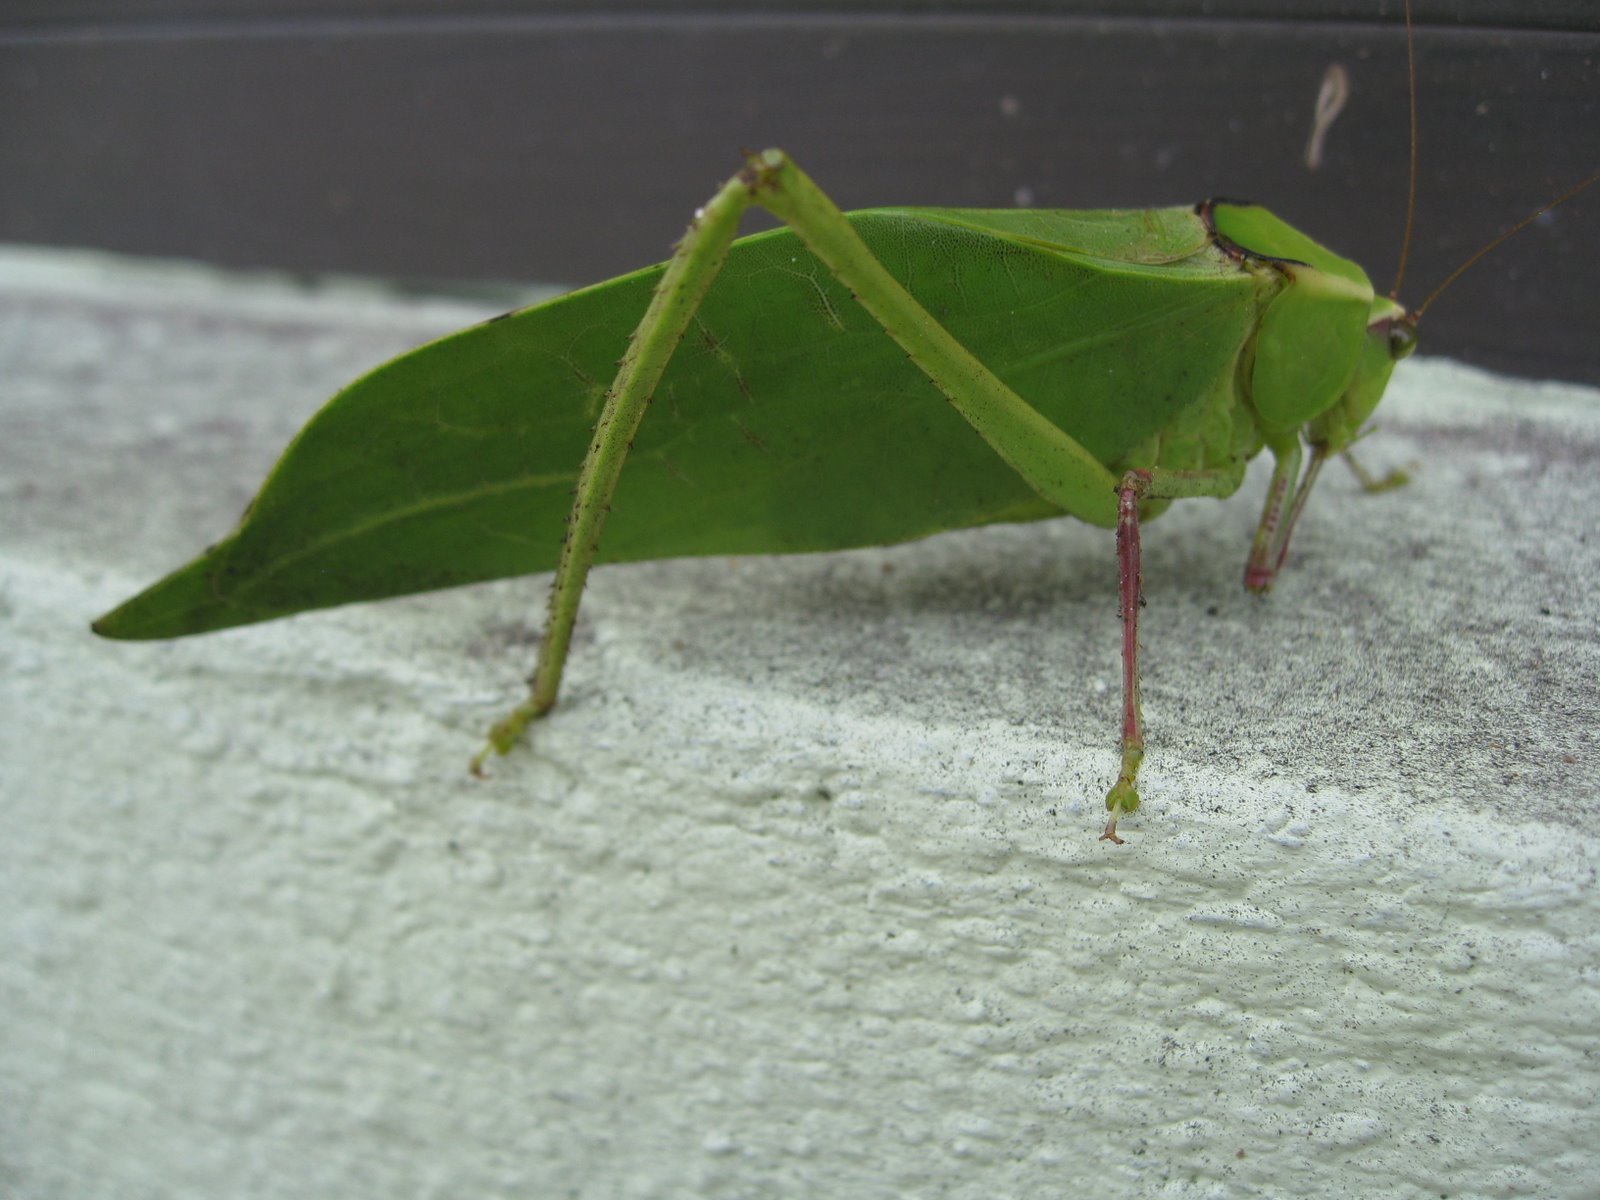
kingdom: Animalia
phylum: Arthropoda
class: Insecta
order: Orthoptera
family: Tettigoniidae
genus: Stilpnochlora
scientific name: Stilpnochlora couloniana
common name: Giant katydid
